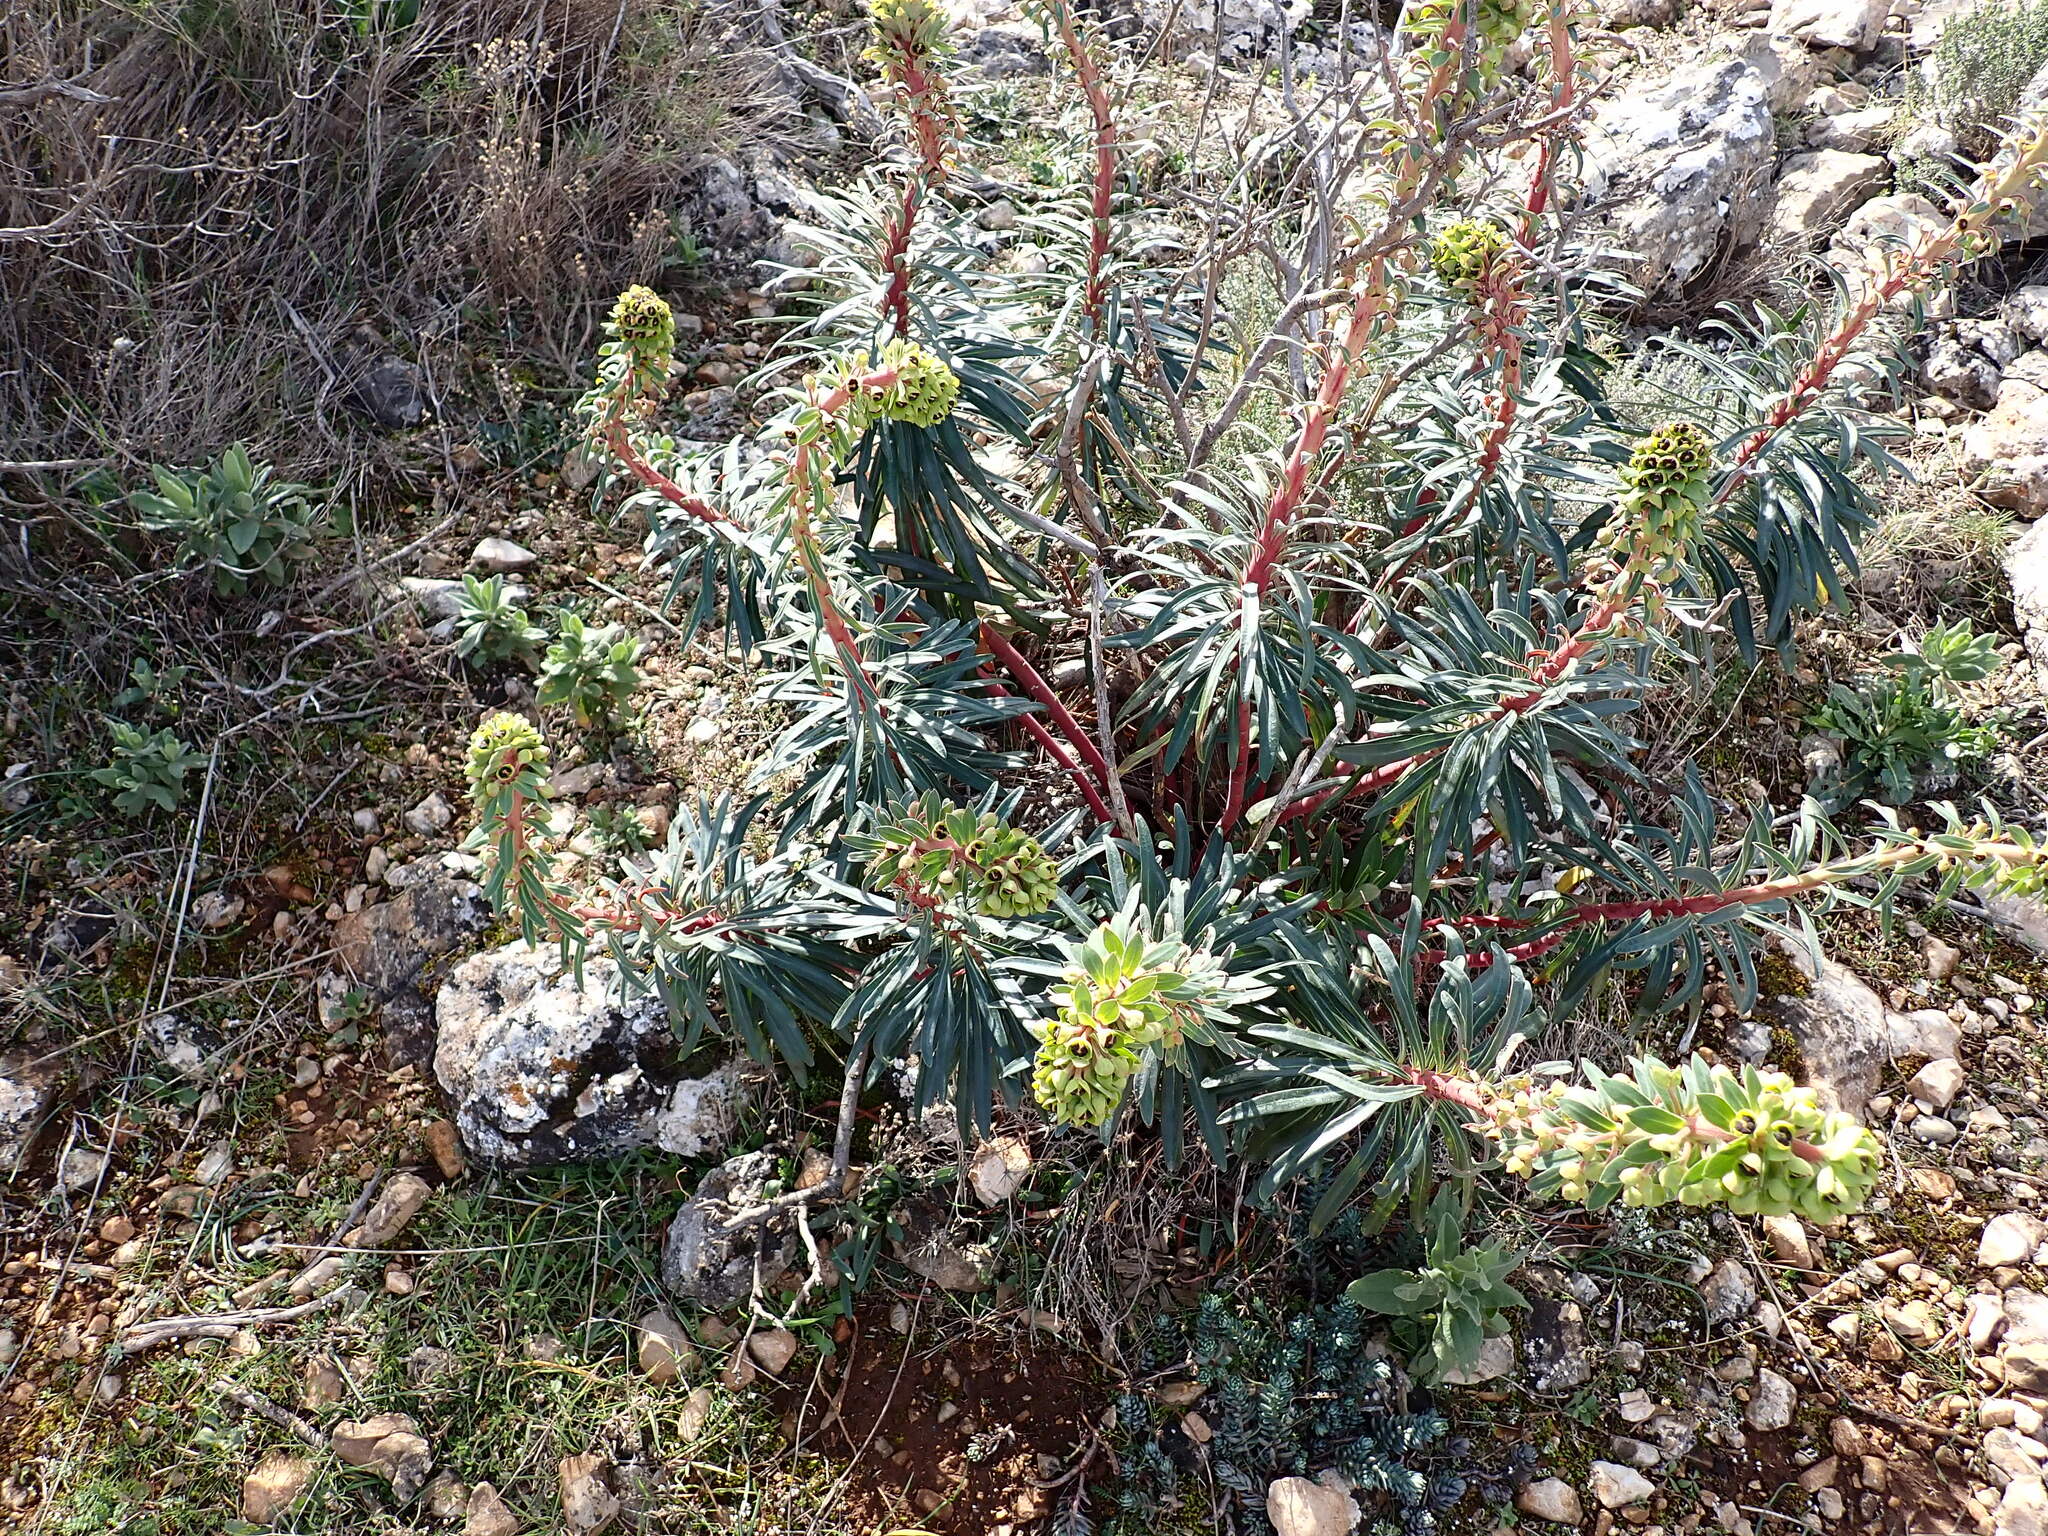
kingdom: Plantae
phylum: Tracheophyta
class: Magnoliopsida
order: Malpighiales
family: Euphorbiaceae
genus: Euphorbia
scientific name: Euphorbia characias
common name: Mediterranean spurge
